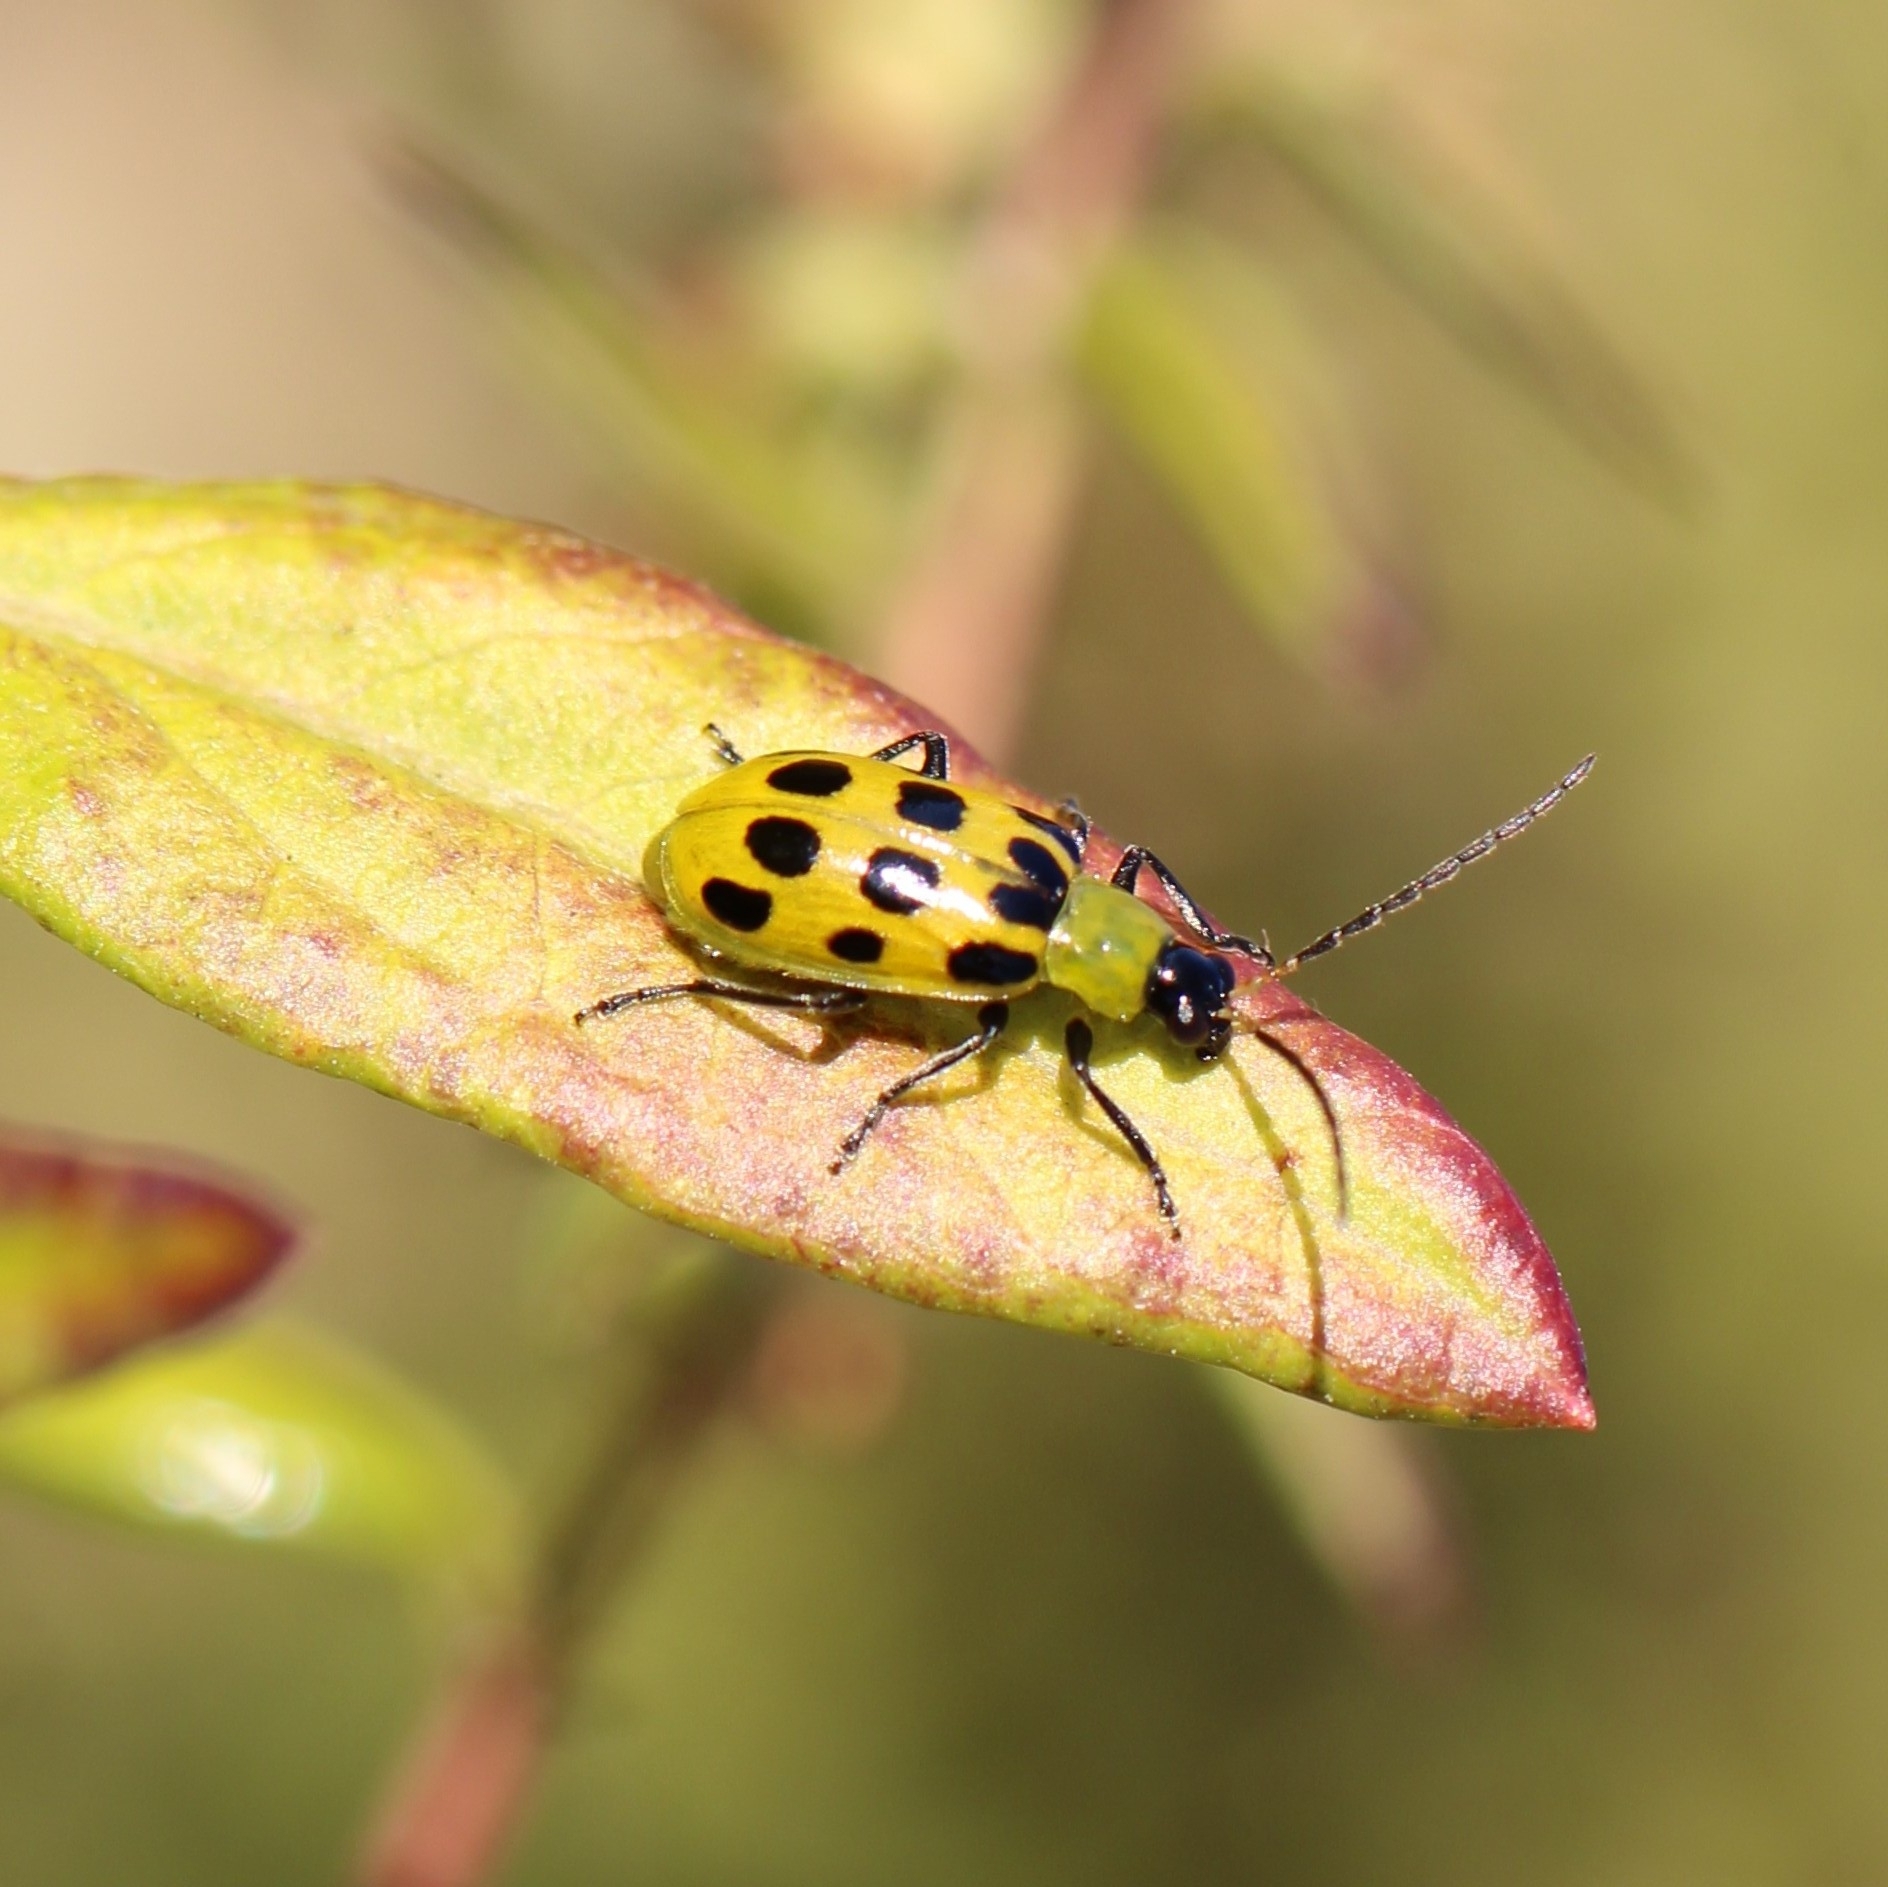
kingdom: Animalia
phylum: Arthropoda
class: Insecta
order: Coleoptera
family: Chrysomelidae
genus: Diabrotica
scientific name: Diabrotica undecimpunctata
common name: Spotted cucumber beetle
